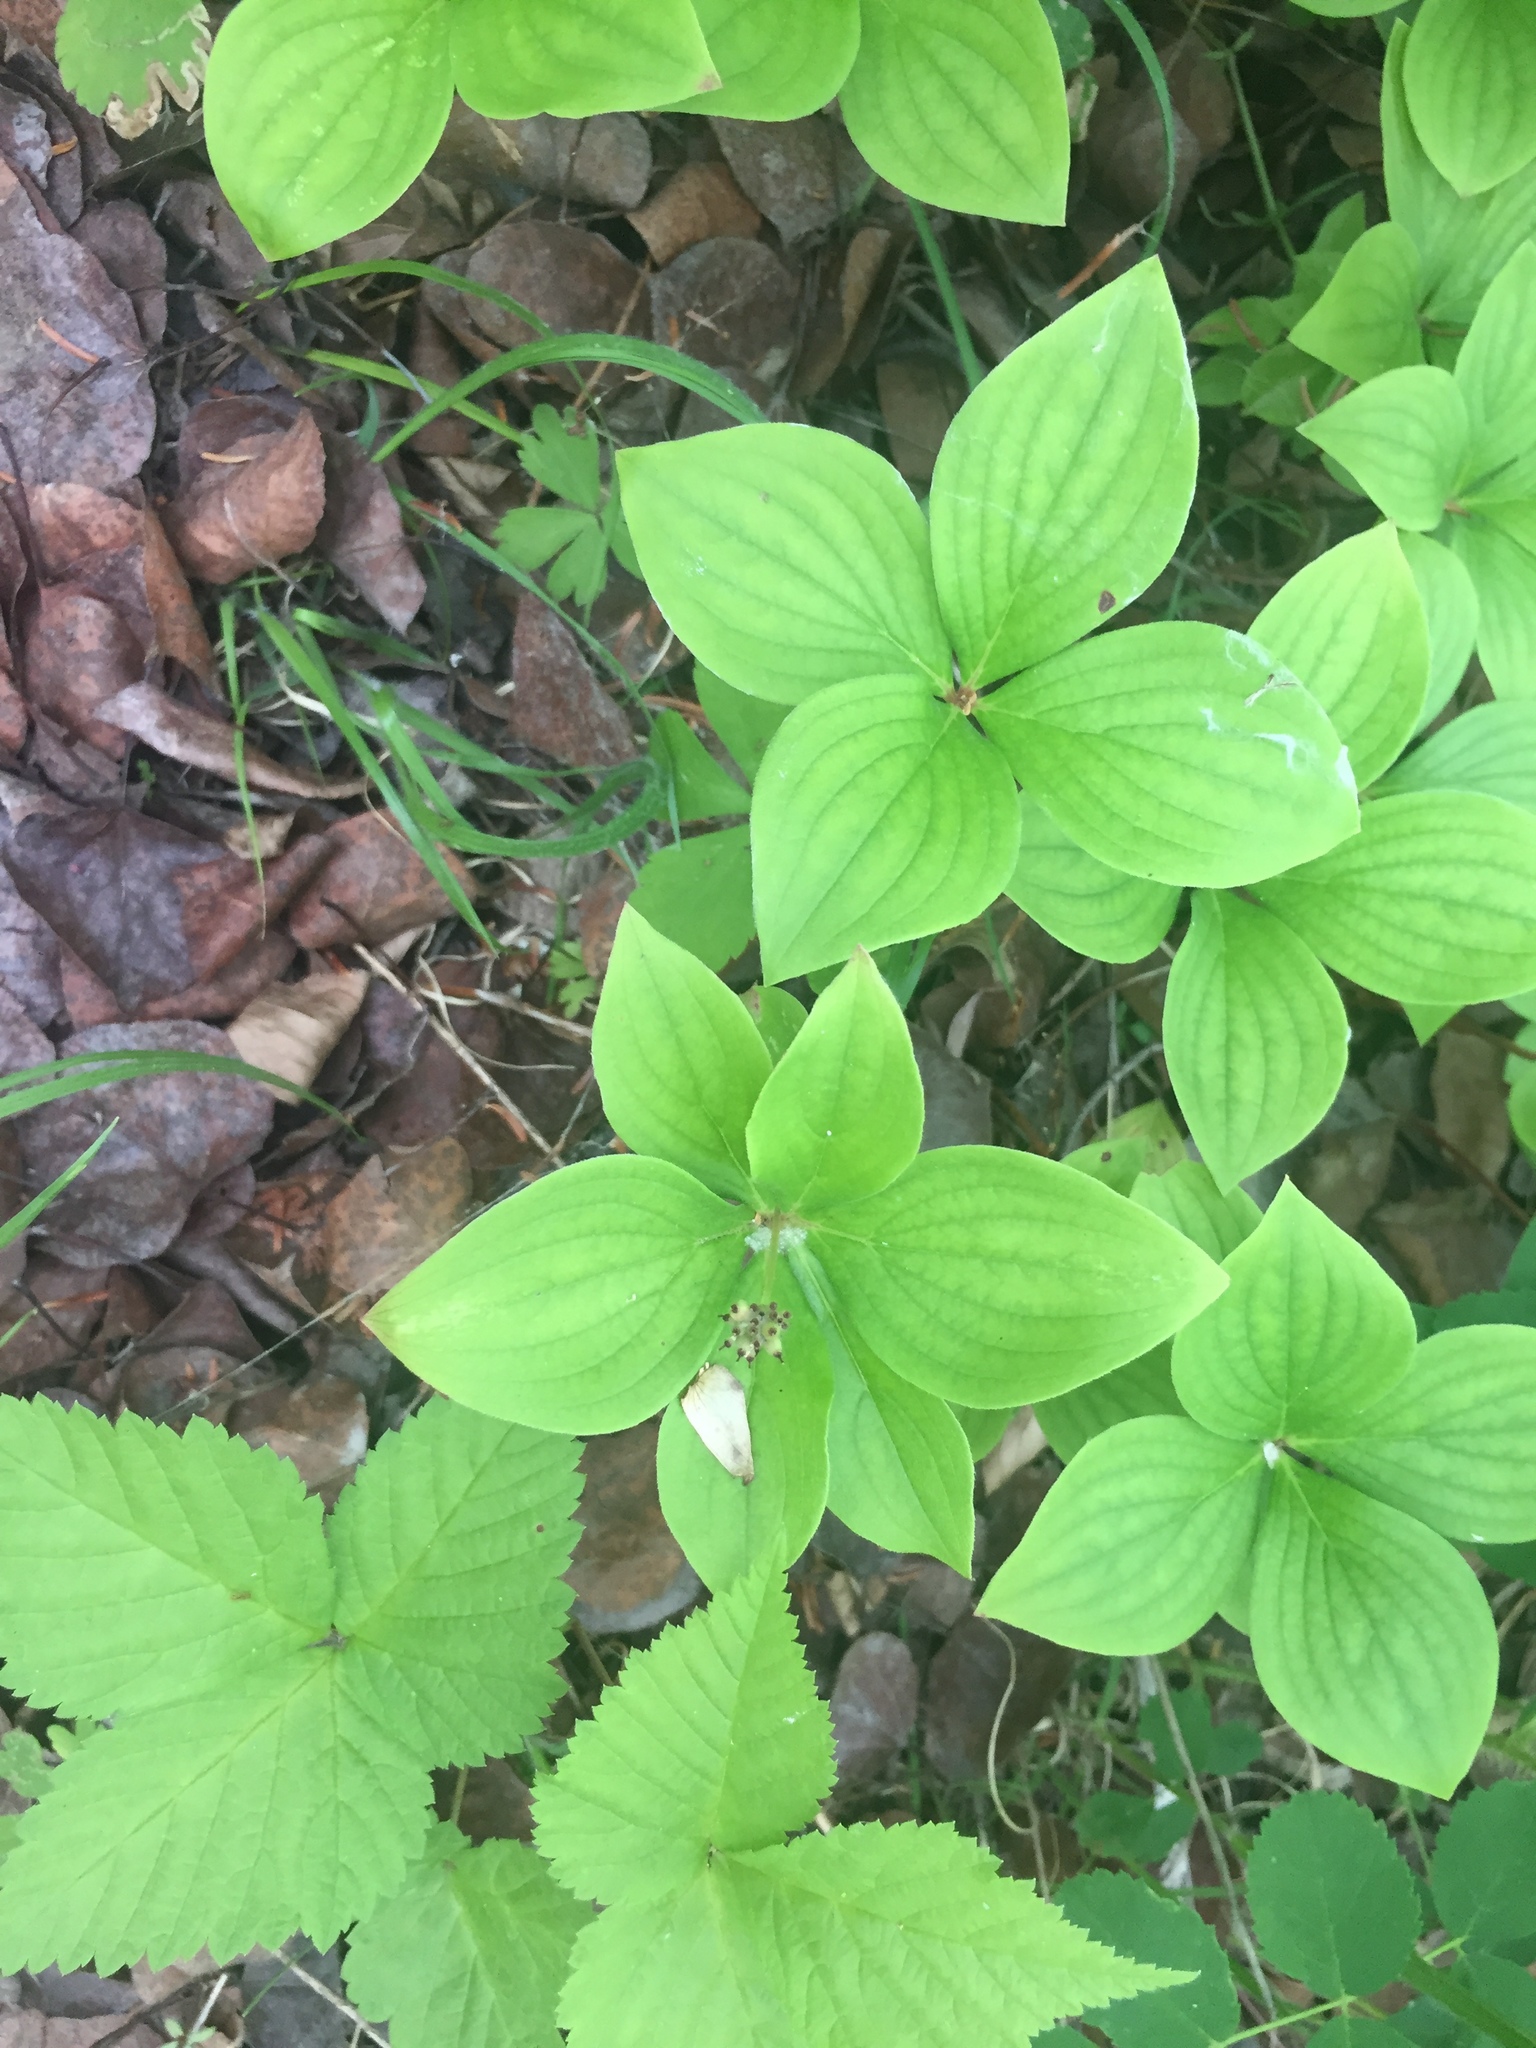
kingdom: Plantae
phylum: Tracheophyta
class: Magnoliopsida
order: Cornales
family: Cornaceae
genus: Cornus
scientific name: Cornus canadensis
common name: Creeping dogwood
